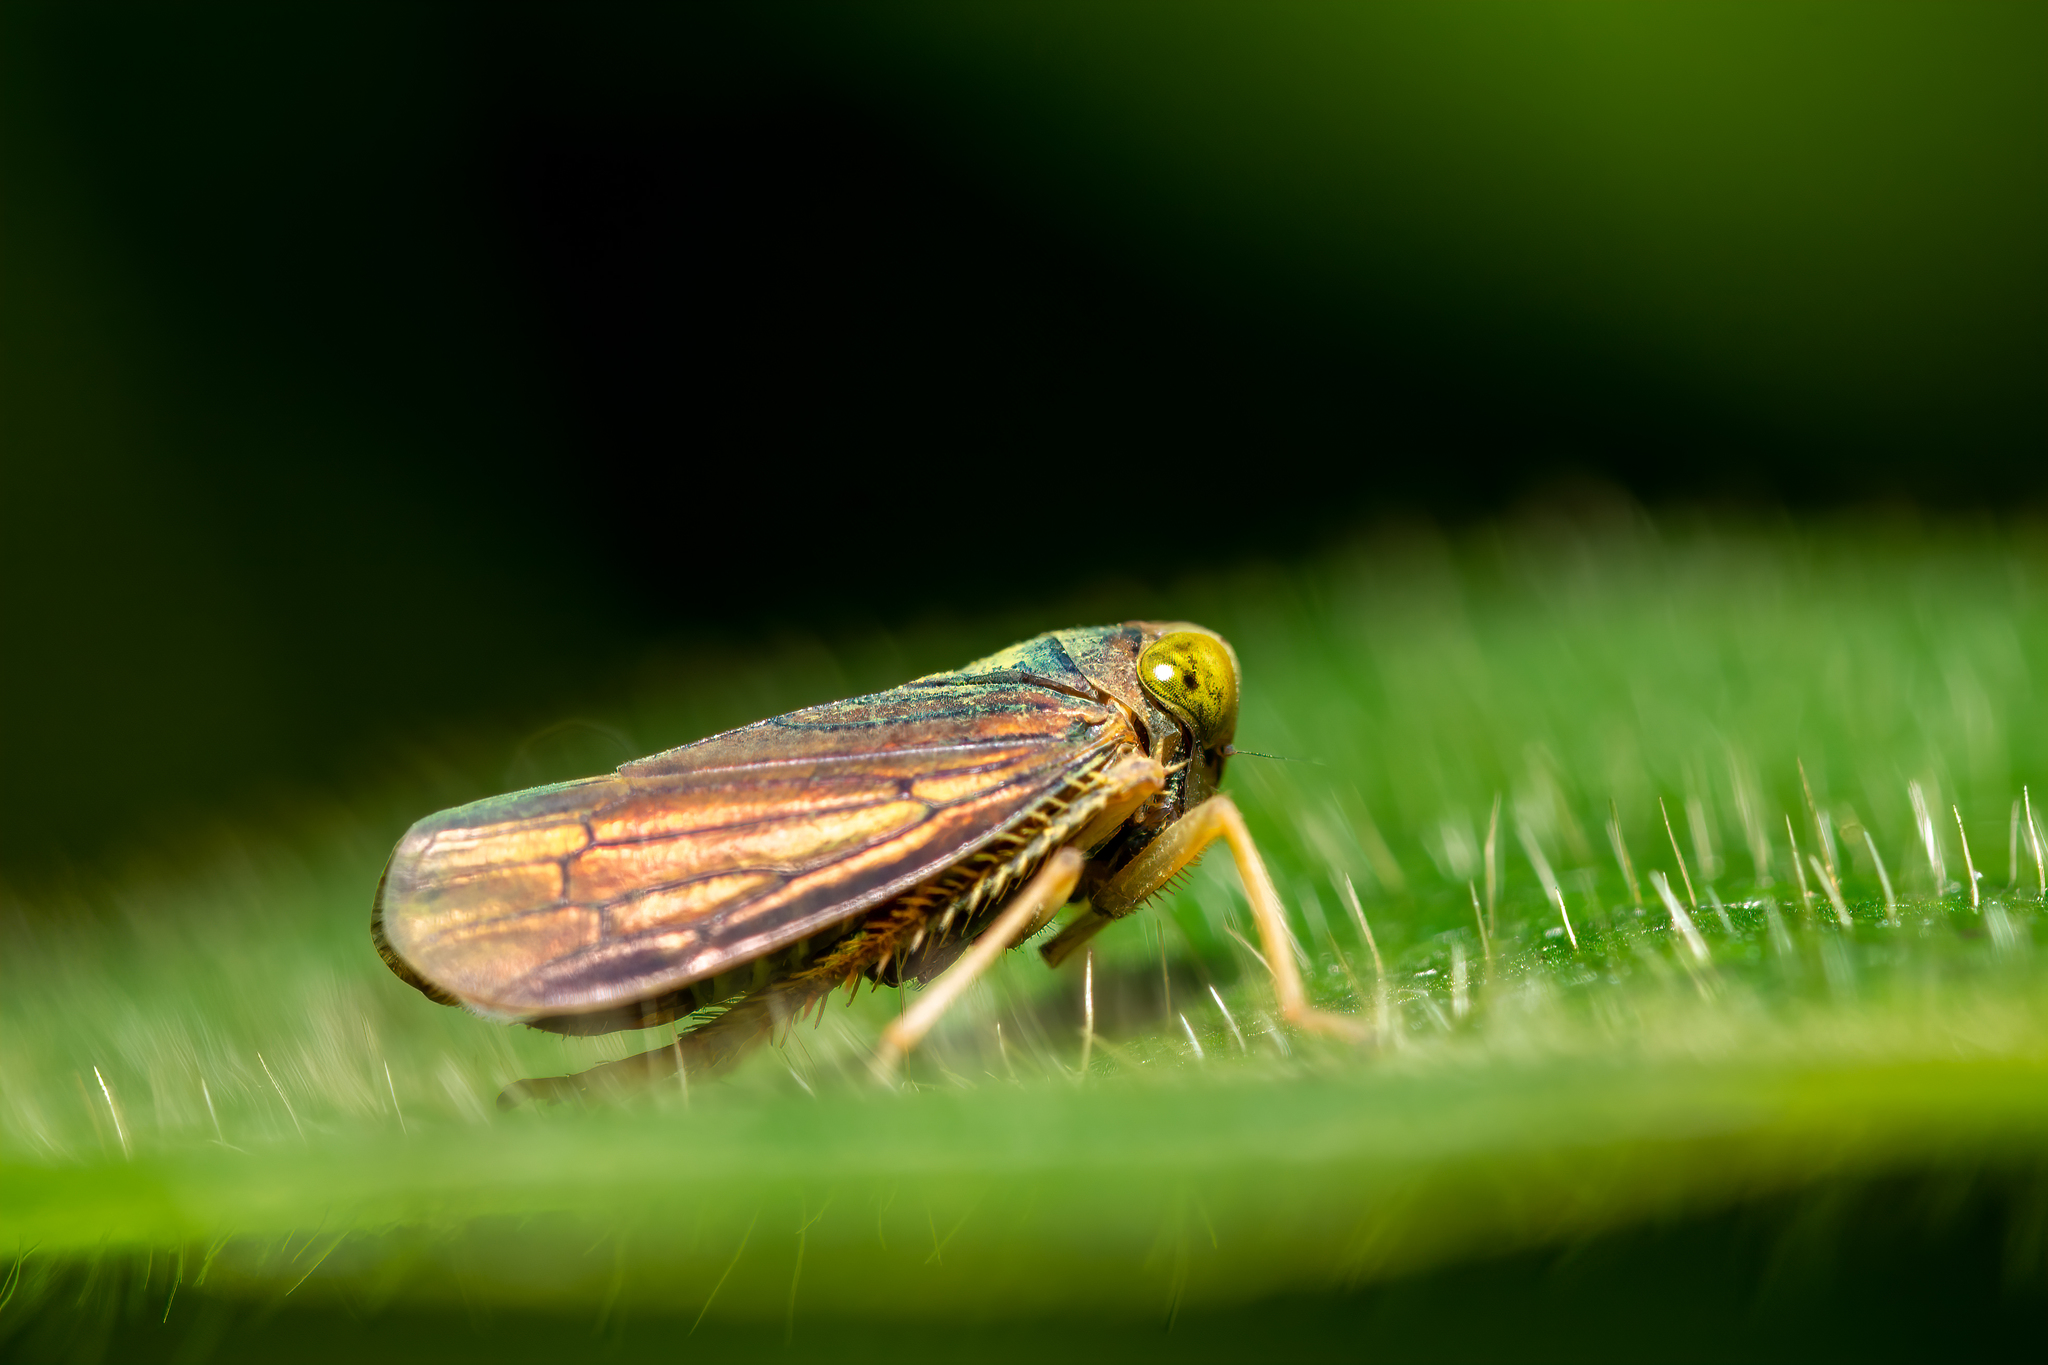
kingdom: Animalia
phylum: Arthropoda
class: Insecta
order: Hemiptera
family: Cicadellidae
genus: Jikradia
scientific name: Jikradia olitoria
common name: Coppery leafhopper
